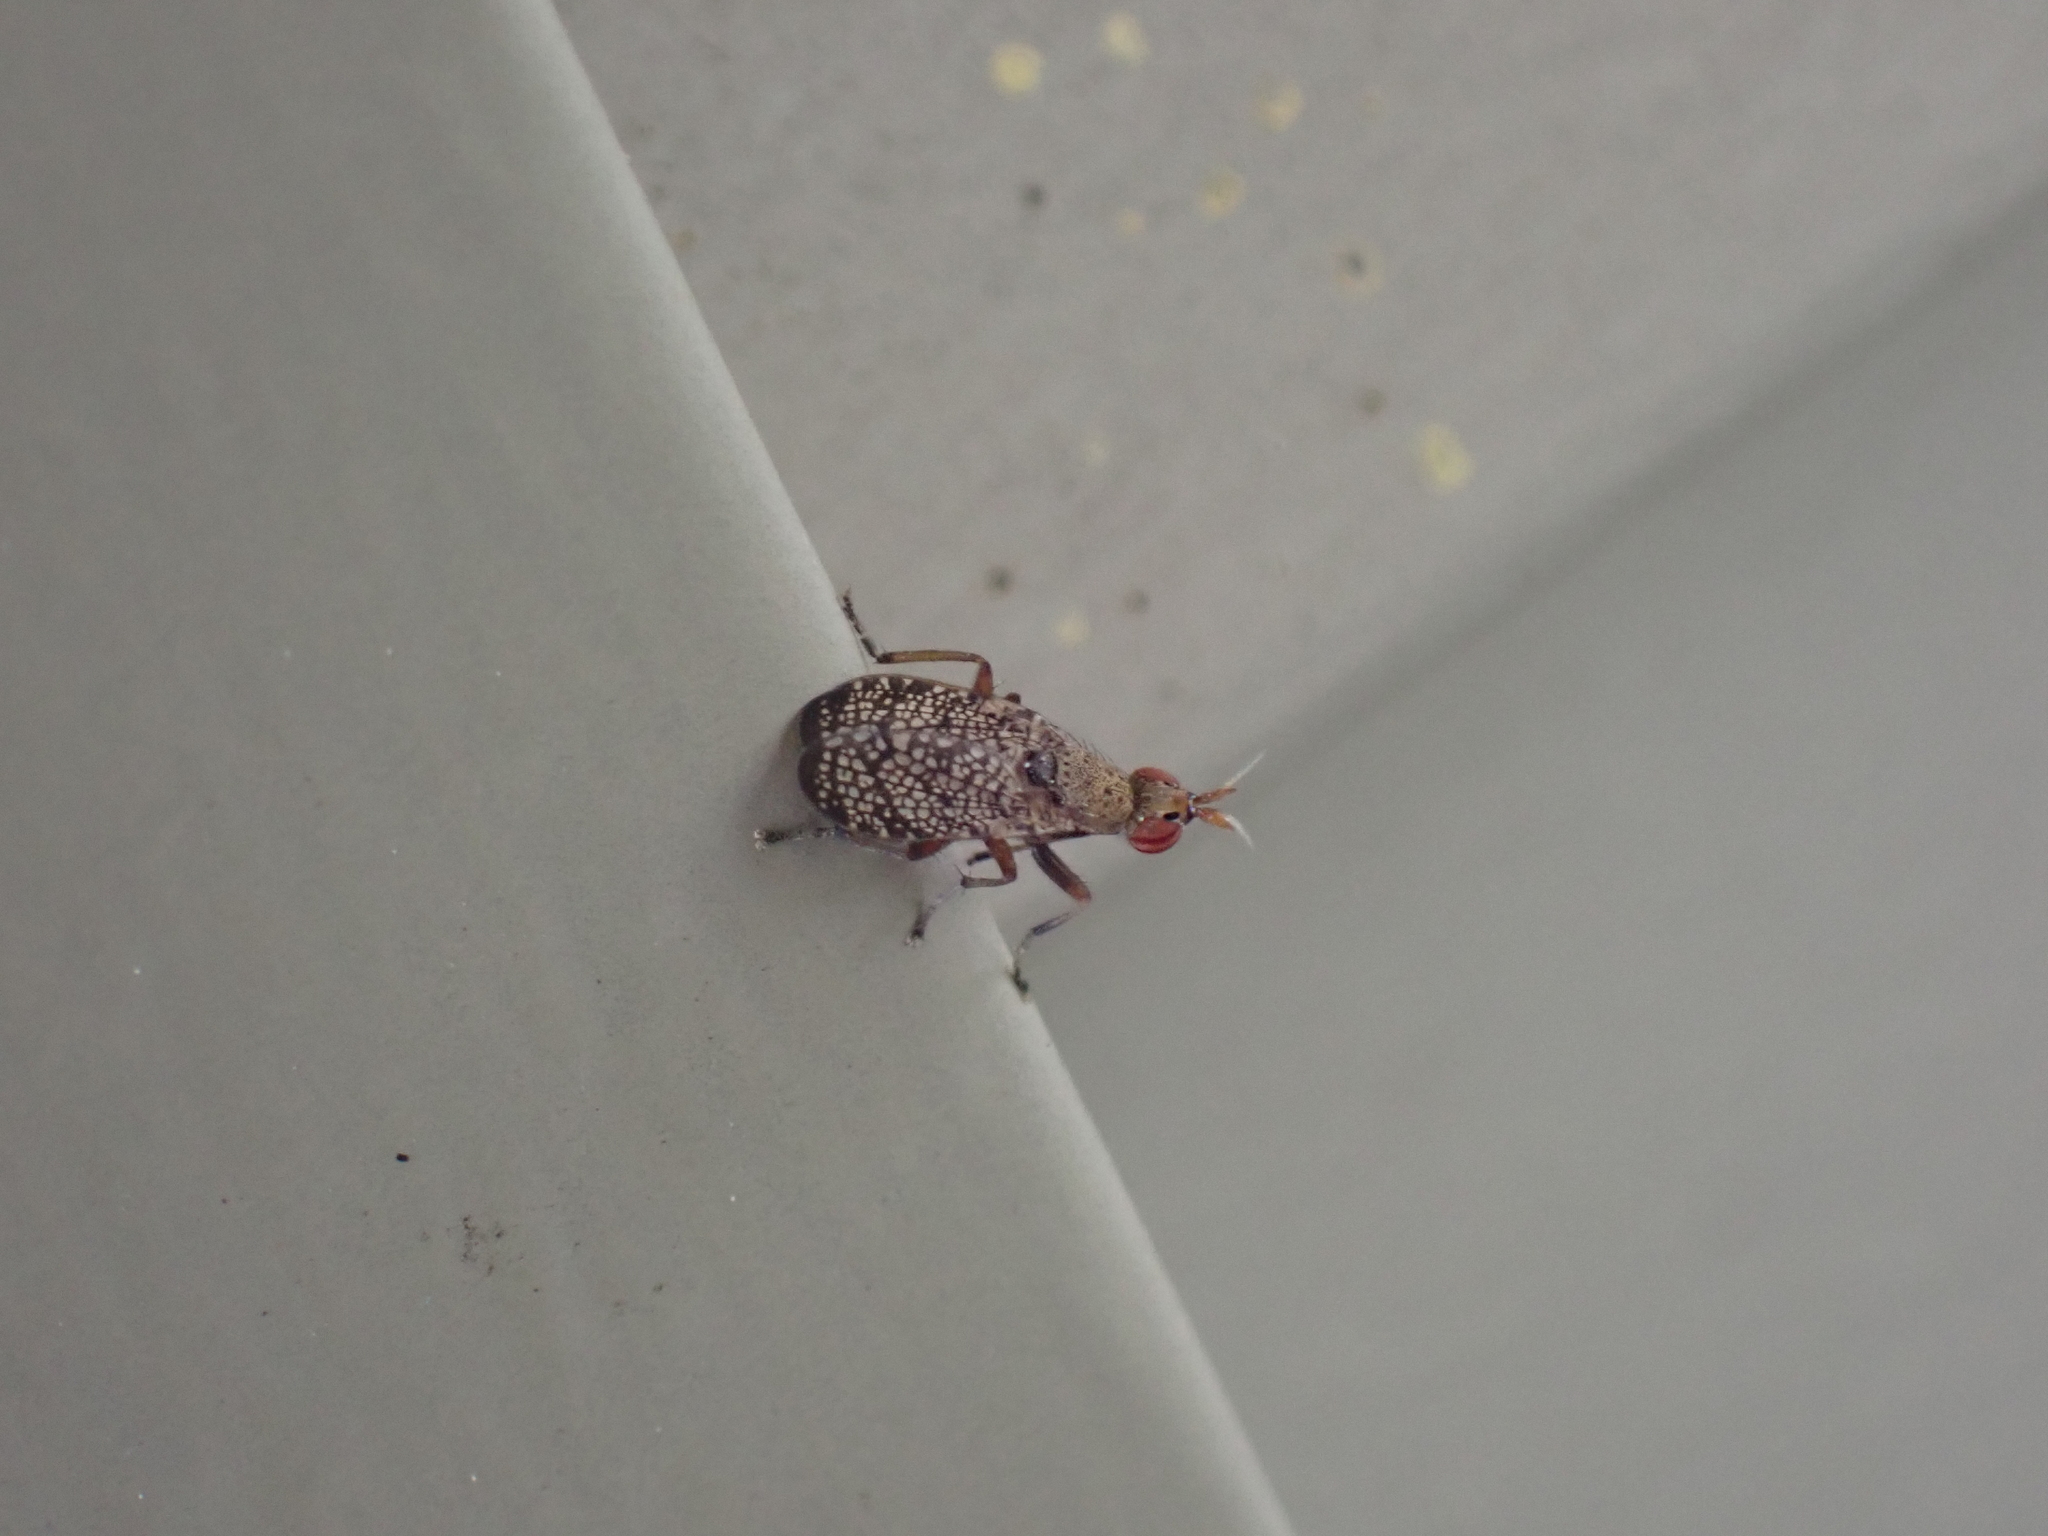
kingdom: Animalia
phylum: Arthropoda
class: Insecta
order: Diptera
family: Sciomyzidae
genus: Euthycera
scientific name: Euthycera flavescens
